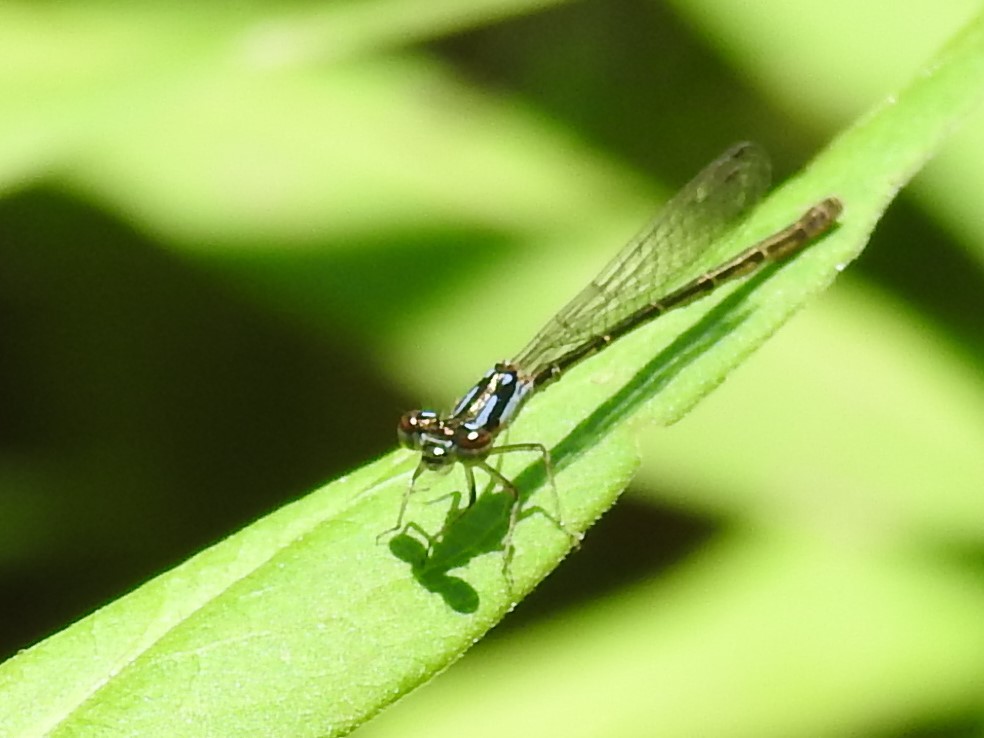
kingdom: Animalia
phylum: Arthropoda
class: Insecta
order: Odonata
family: Coenagrionidae
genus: Ischnura
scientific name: Ischnura posita
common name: Fragile forktail
